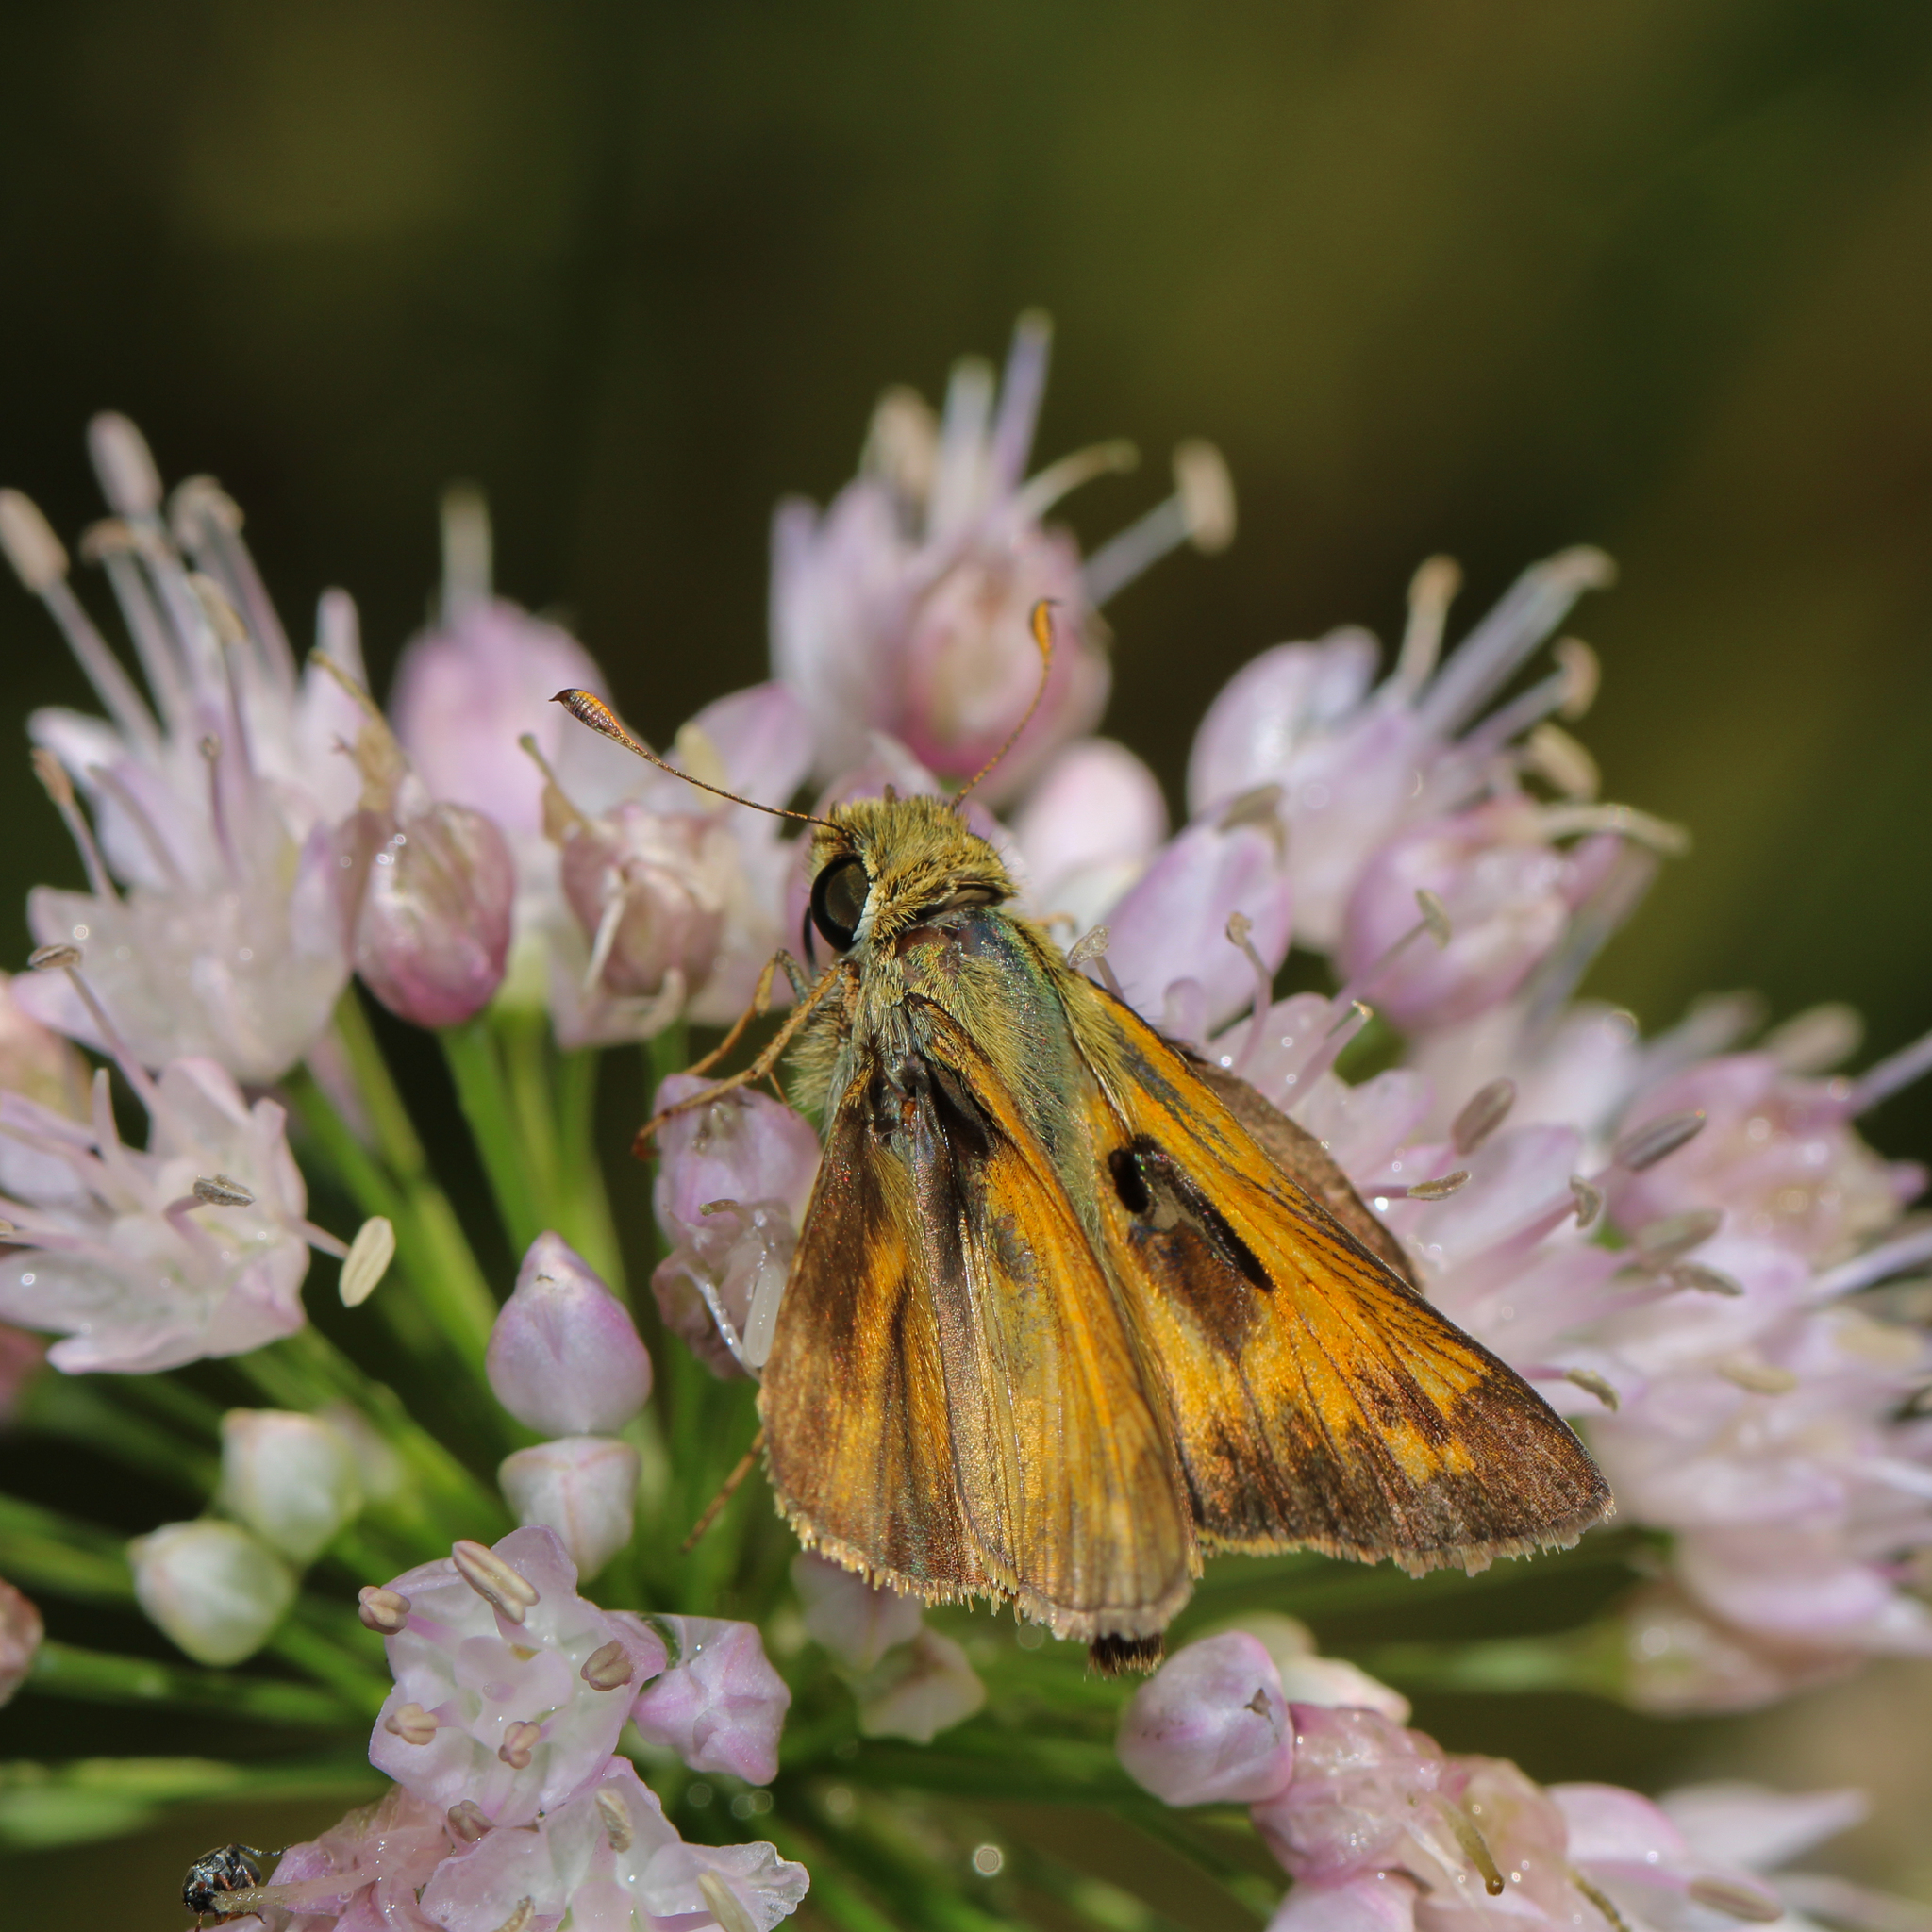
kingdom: Animalia
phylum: Arthropoda
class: Insecta
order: Lepidoptera
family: Hesperiidae
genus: Atalopedes
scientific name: Atalopedes
